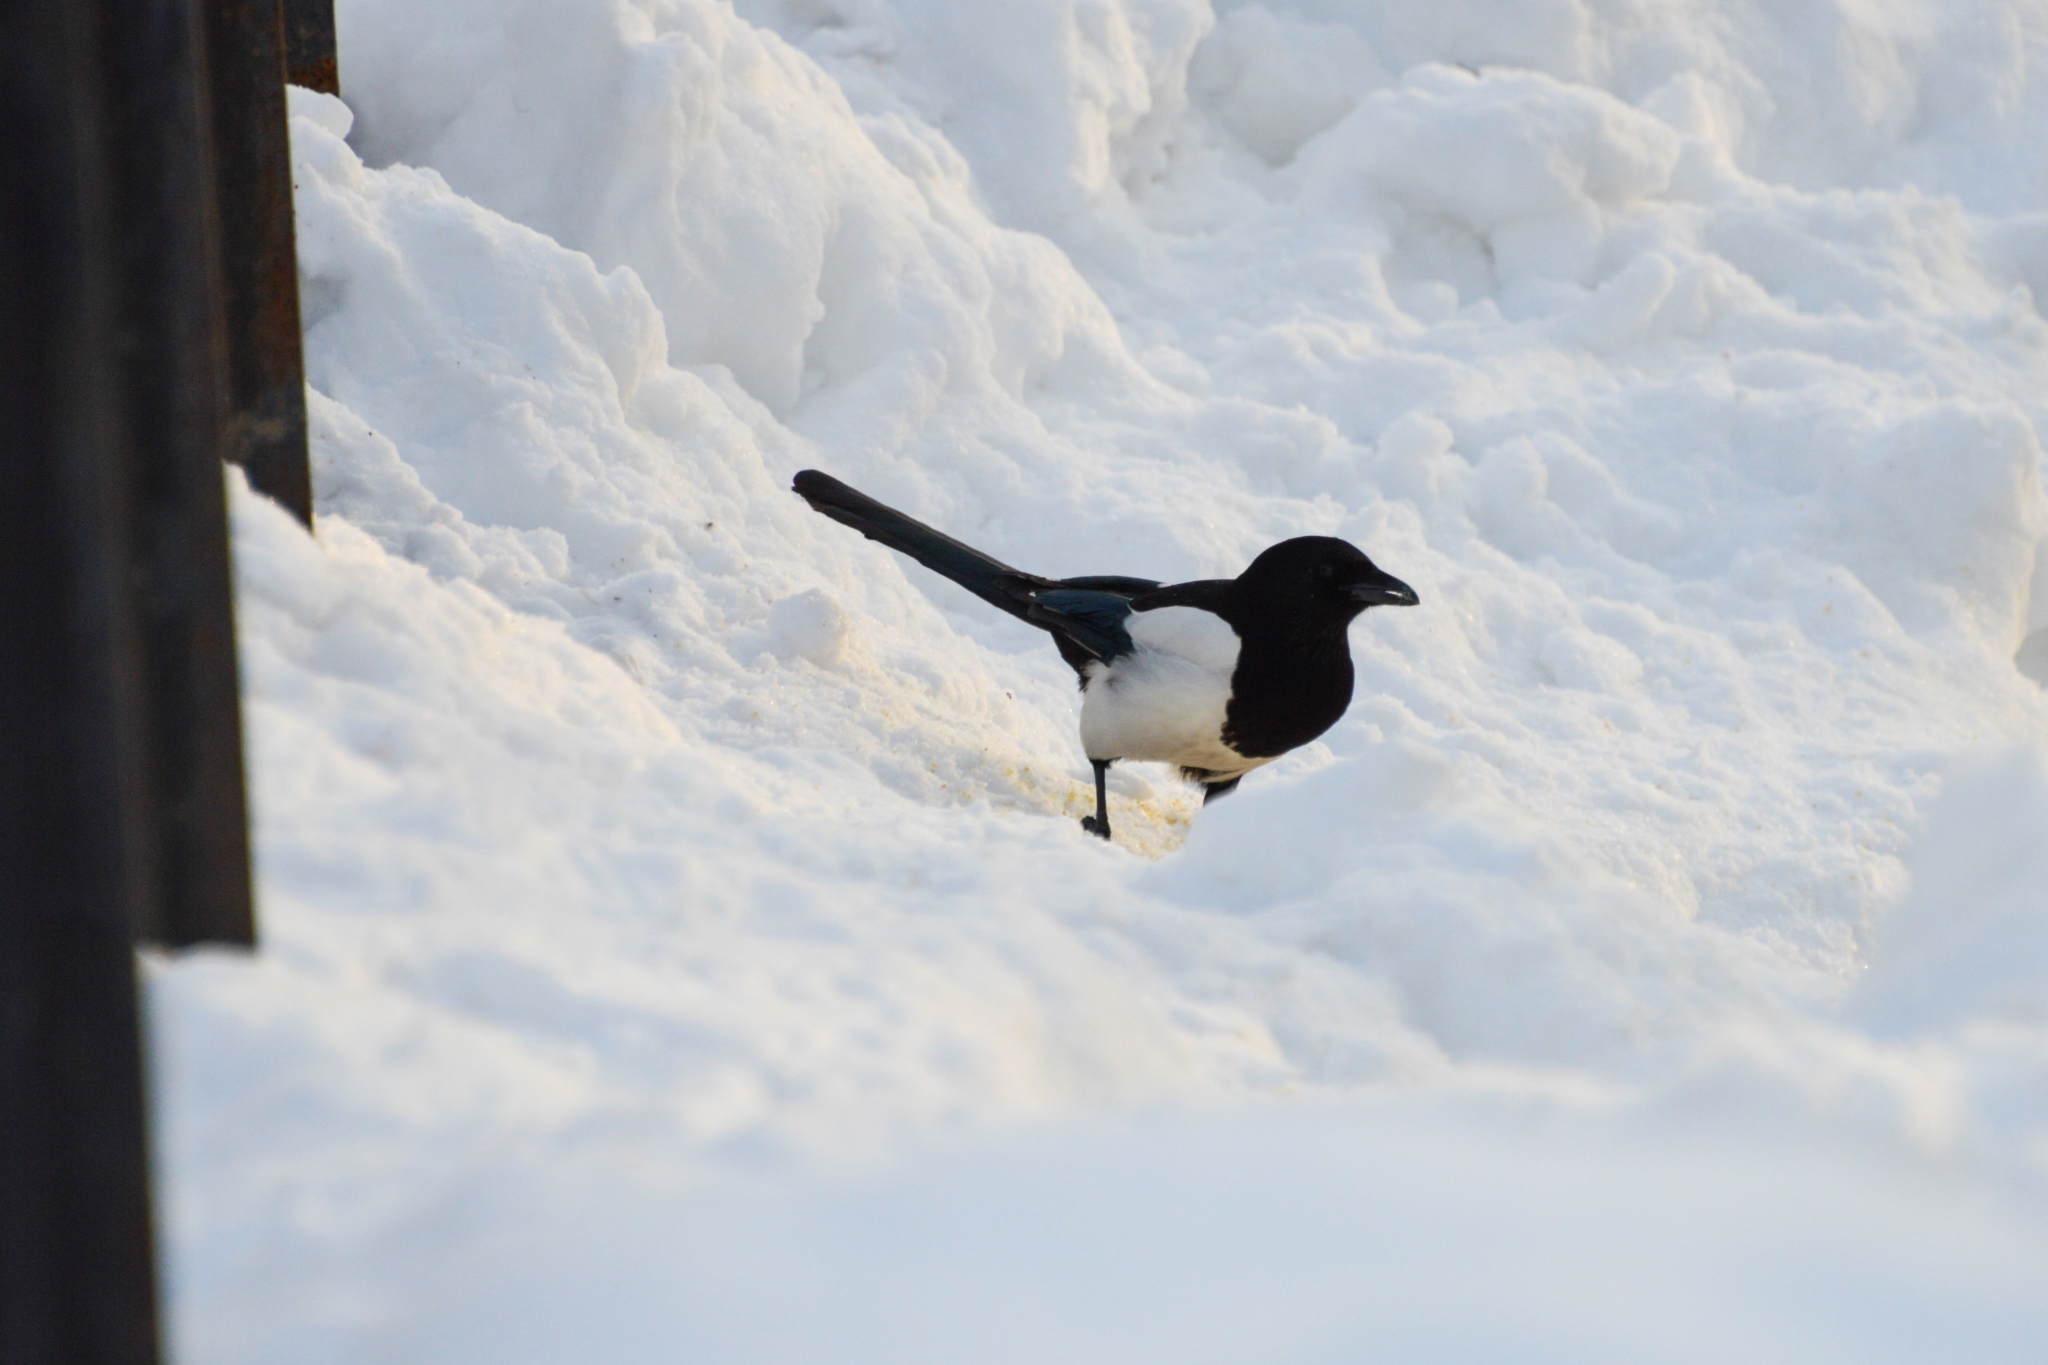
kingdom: Animalia
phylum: Chordata
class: Aves
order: Passeriformes
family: Corvidae
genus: Pica
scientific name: Pica pica
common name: Eurasian magpie
